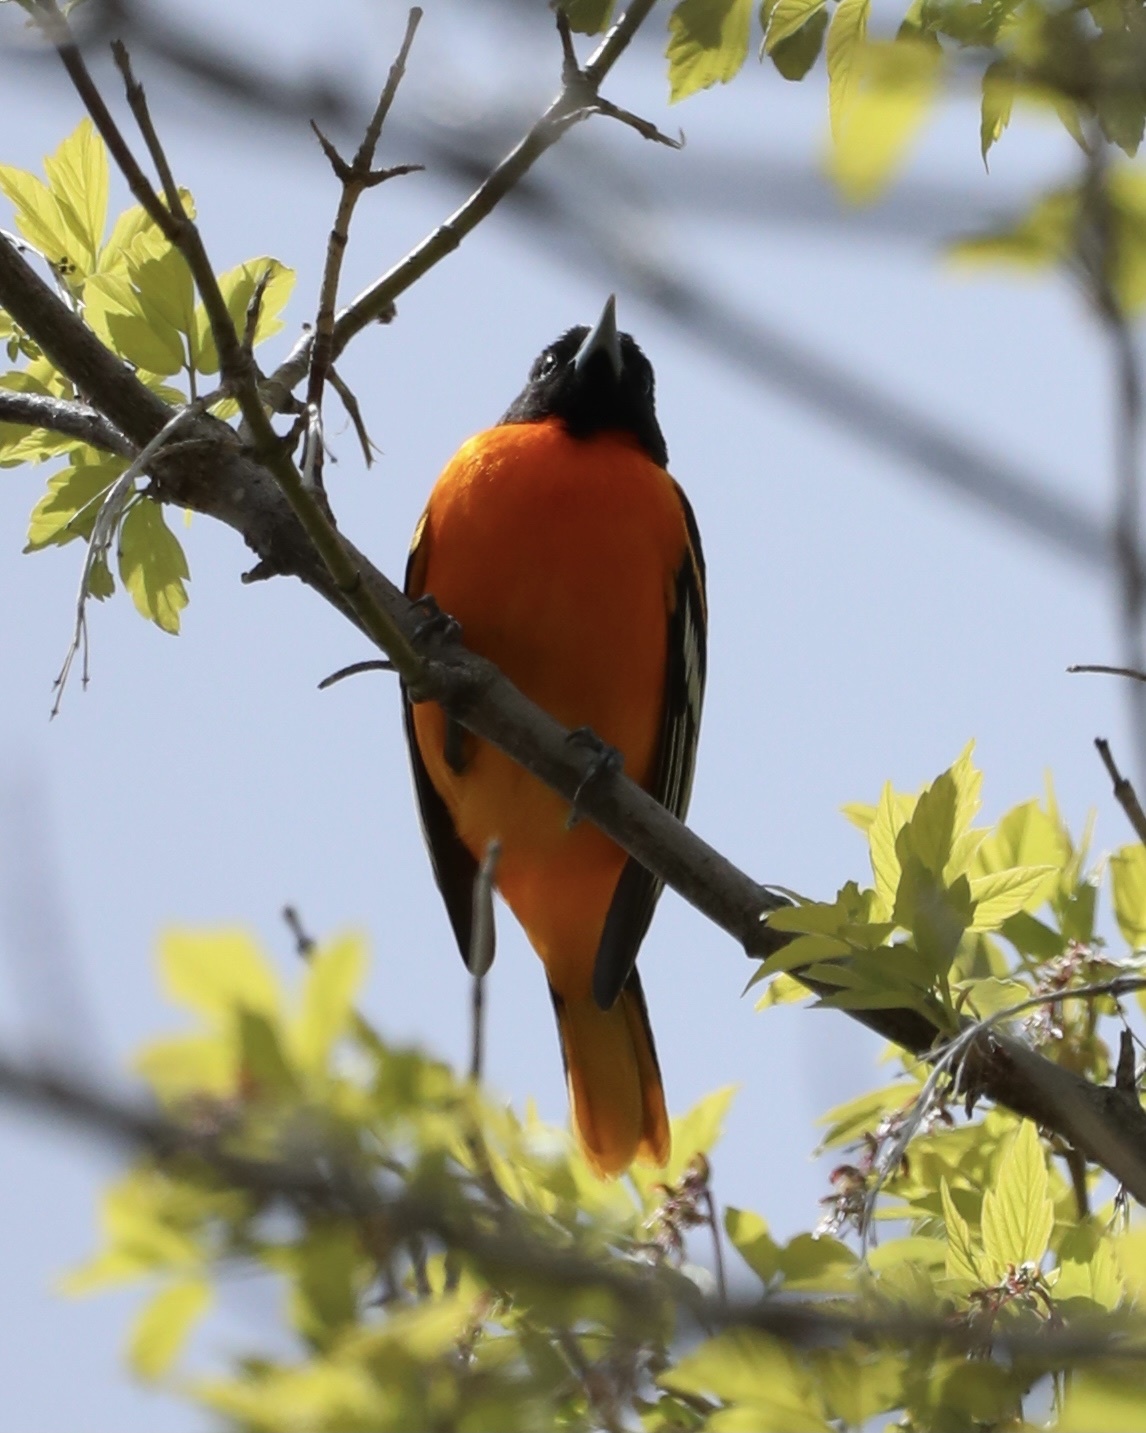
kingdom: Animalia
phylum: Chordata
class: Aves
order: Passeriformes
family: Icteridae
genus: Icterus
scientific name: Icterus galbula
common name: Baltimore oriole
